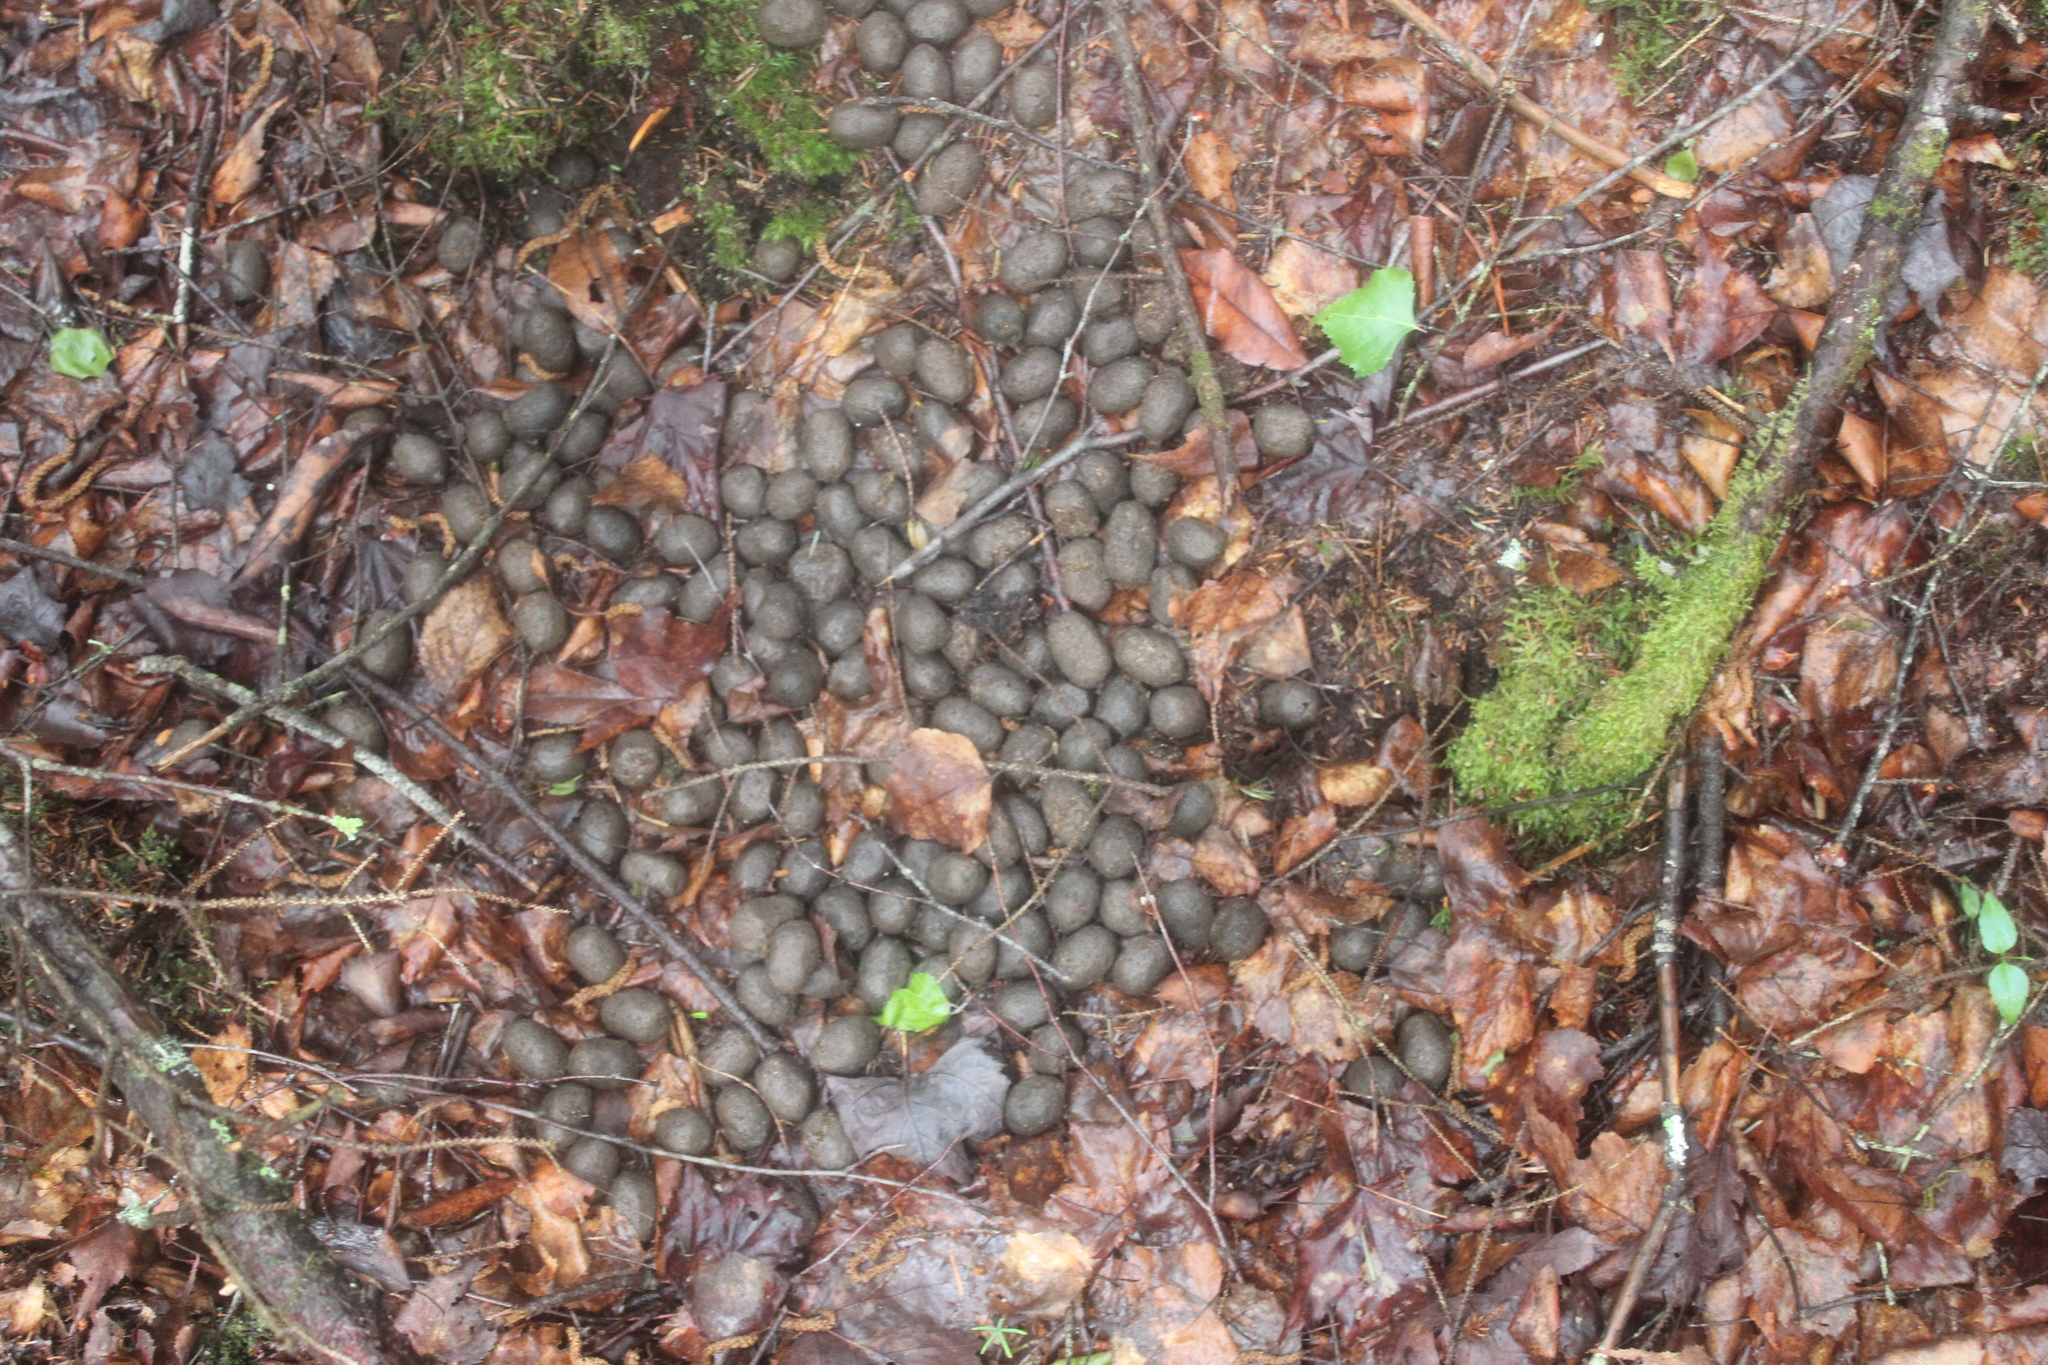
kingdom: Animalia
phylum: Chordata
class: Mammalia
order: Artiodactyla
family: Cervidae
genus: Alces
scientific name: Alces alces
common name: Moose
